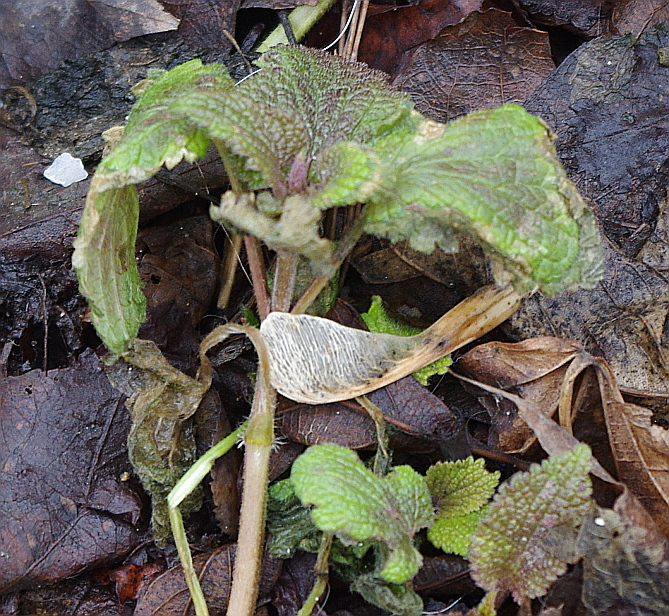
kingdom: Plantae
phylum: Tracheophyta
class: Magnoliopsida
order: Lamiales
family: Lamiaceae
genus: Lamium
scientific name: Lamium album
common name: White dead-nettle
